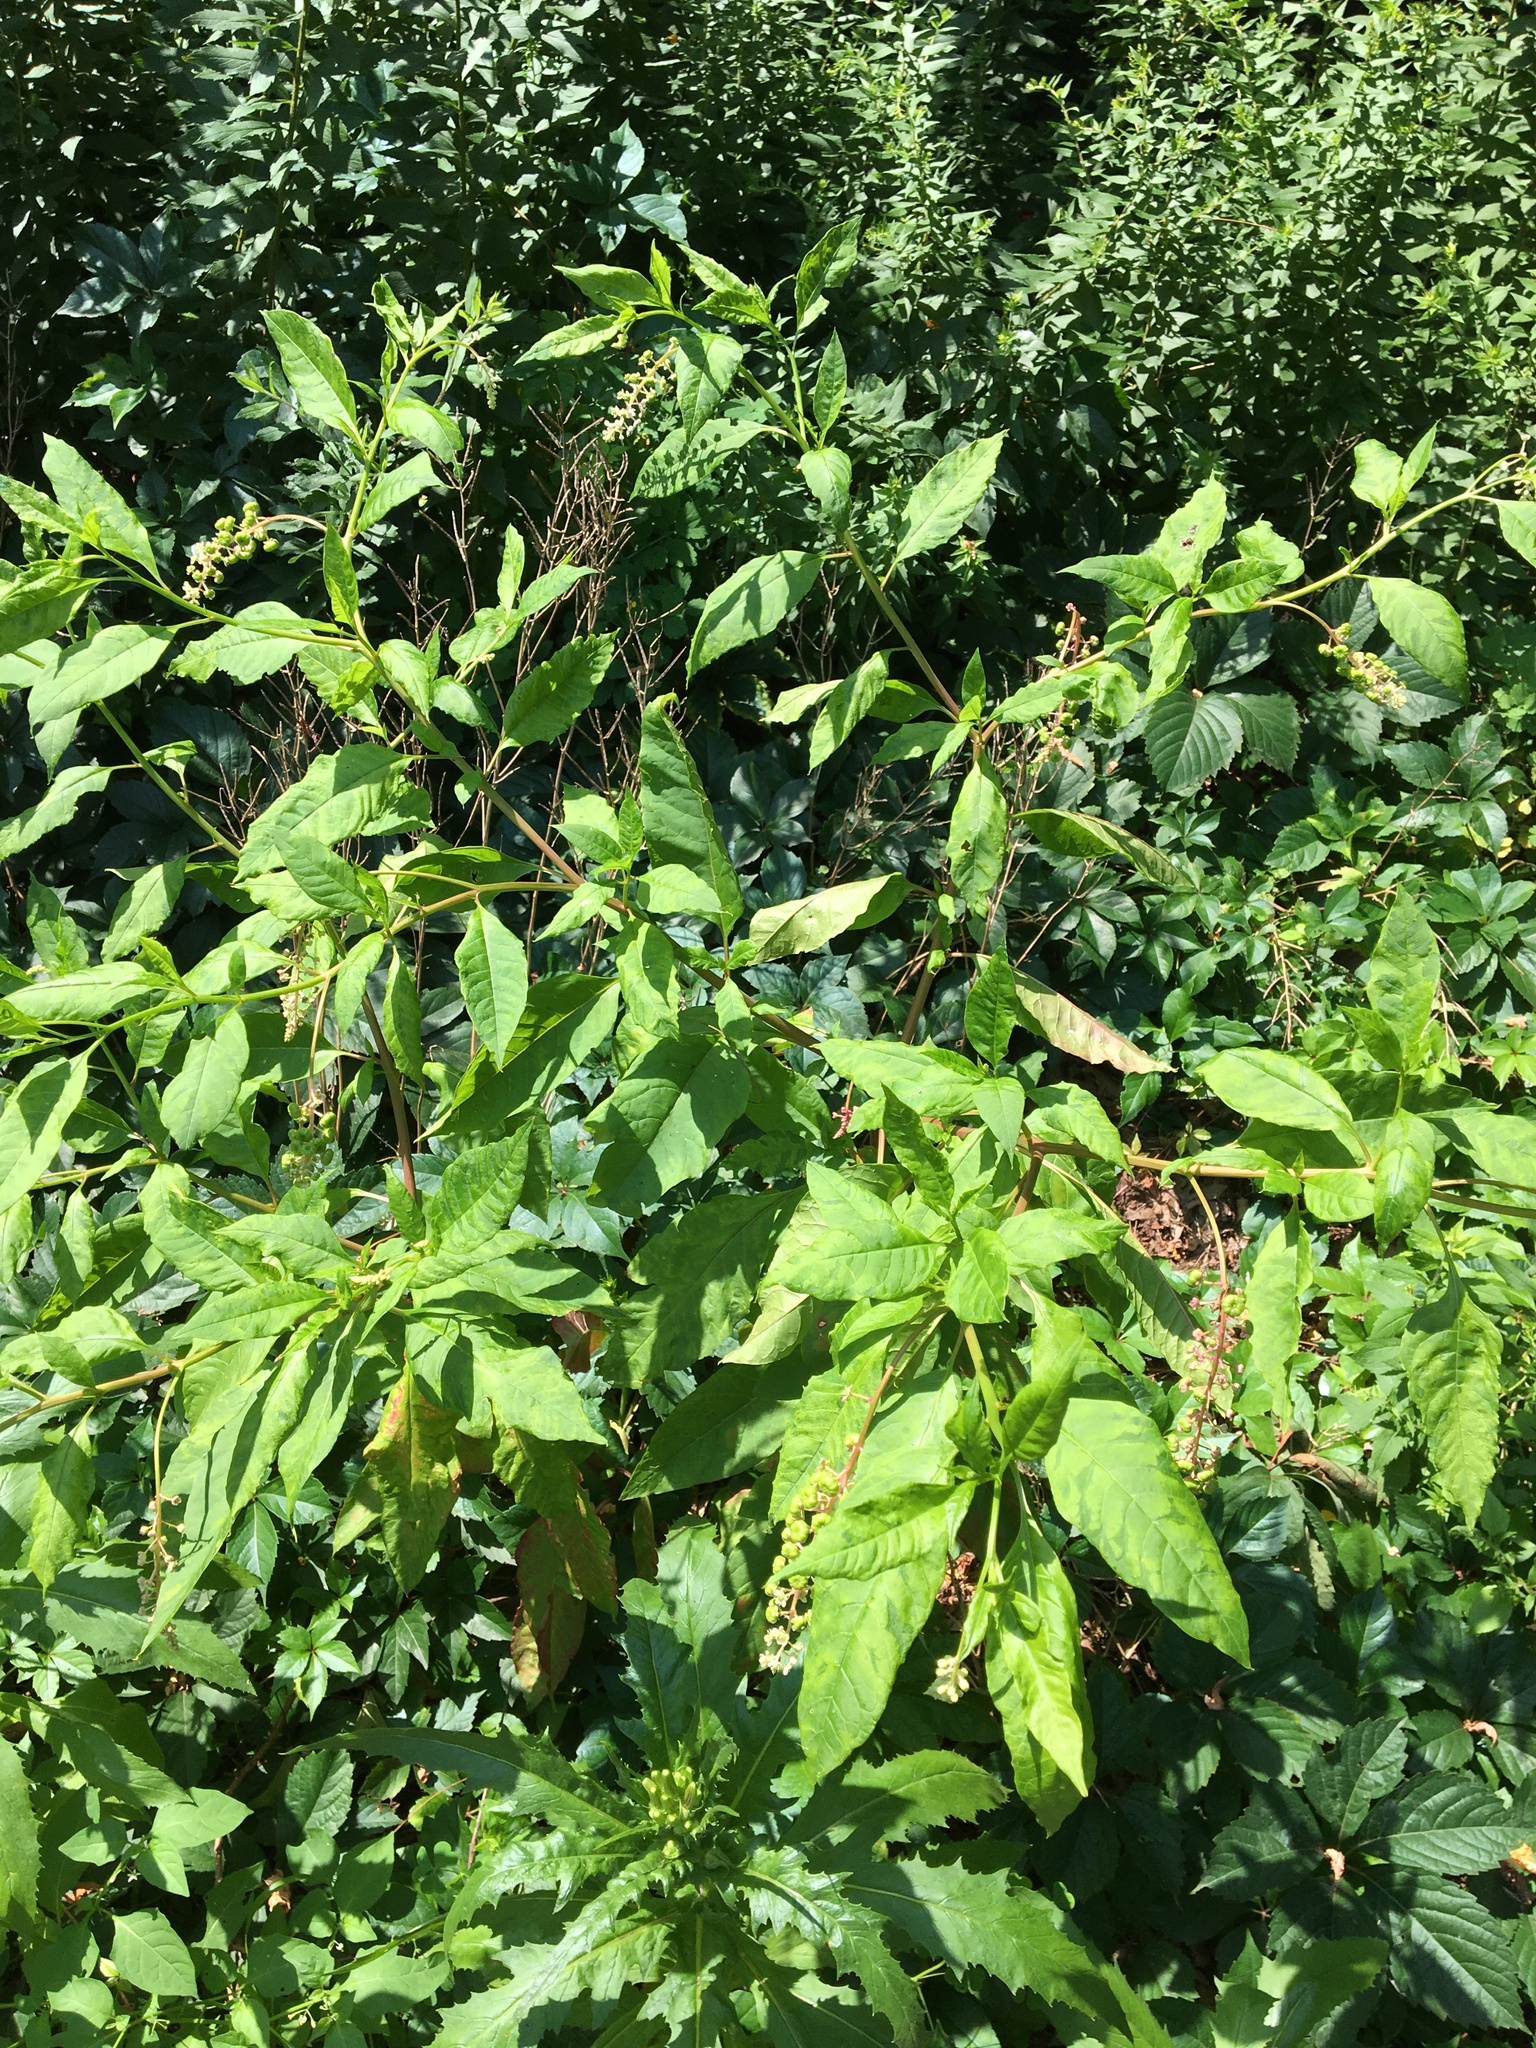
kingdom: Plantae
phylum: Tracheophyta
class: Magnoliopsida
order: Caryophyllales
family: Phytolaccaceae
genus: Phytolacca
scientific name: Phytolacca americana
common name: American pokeweed
